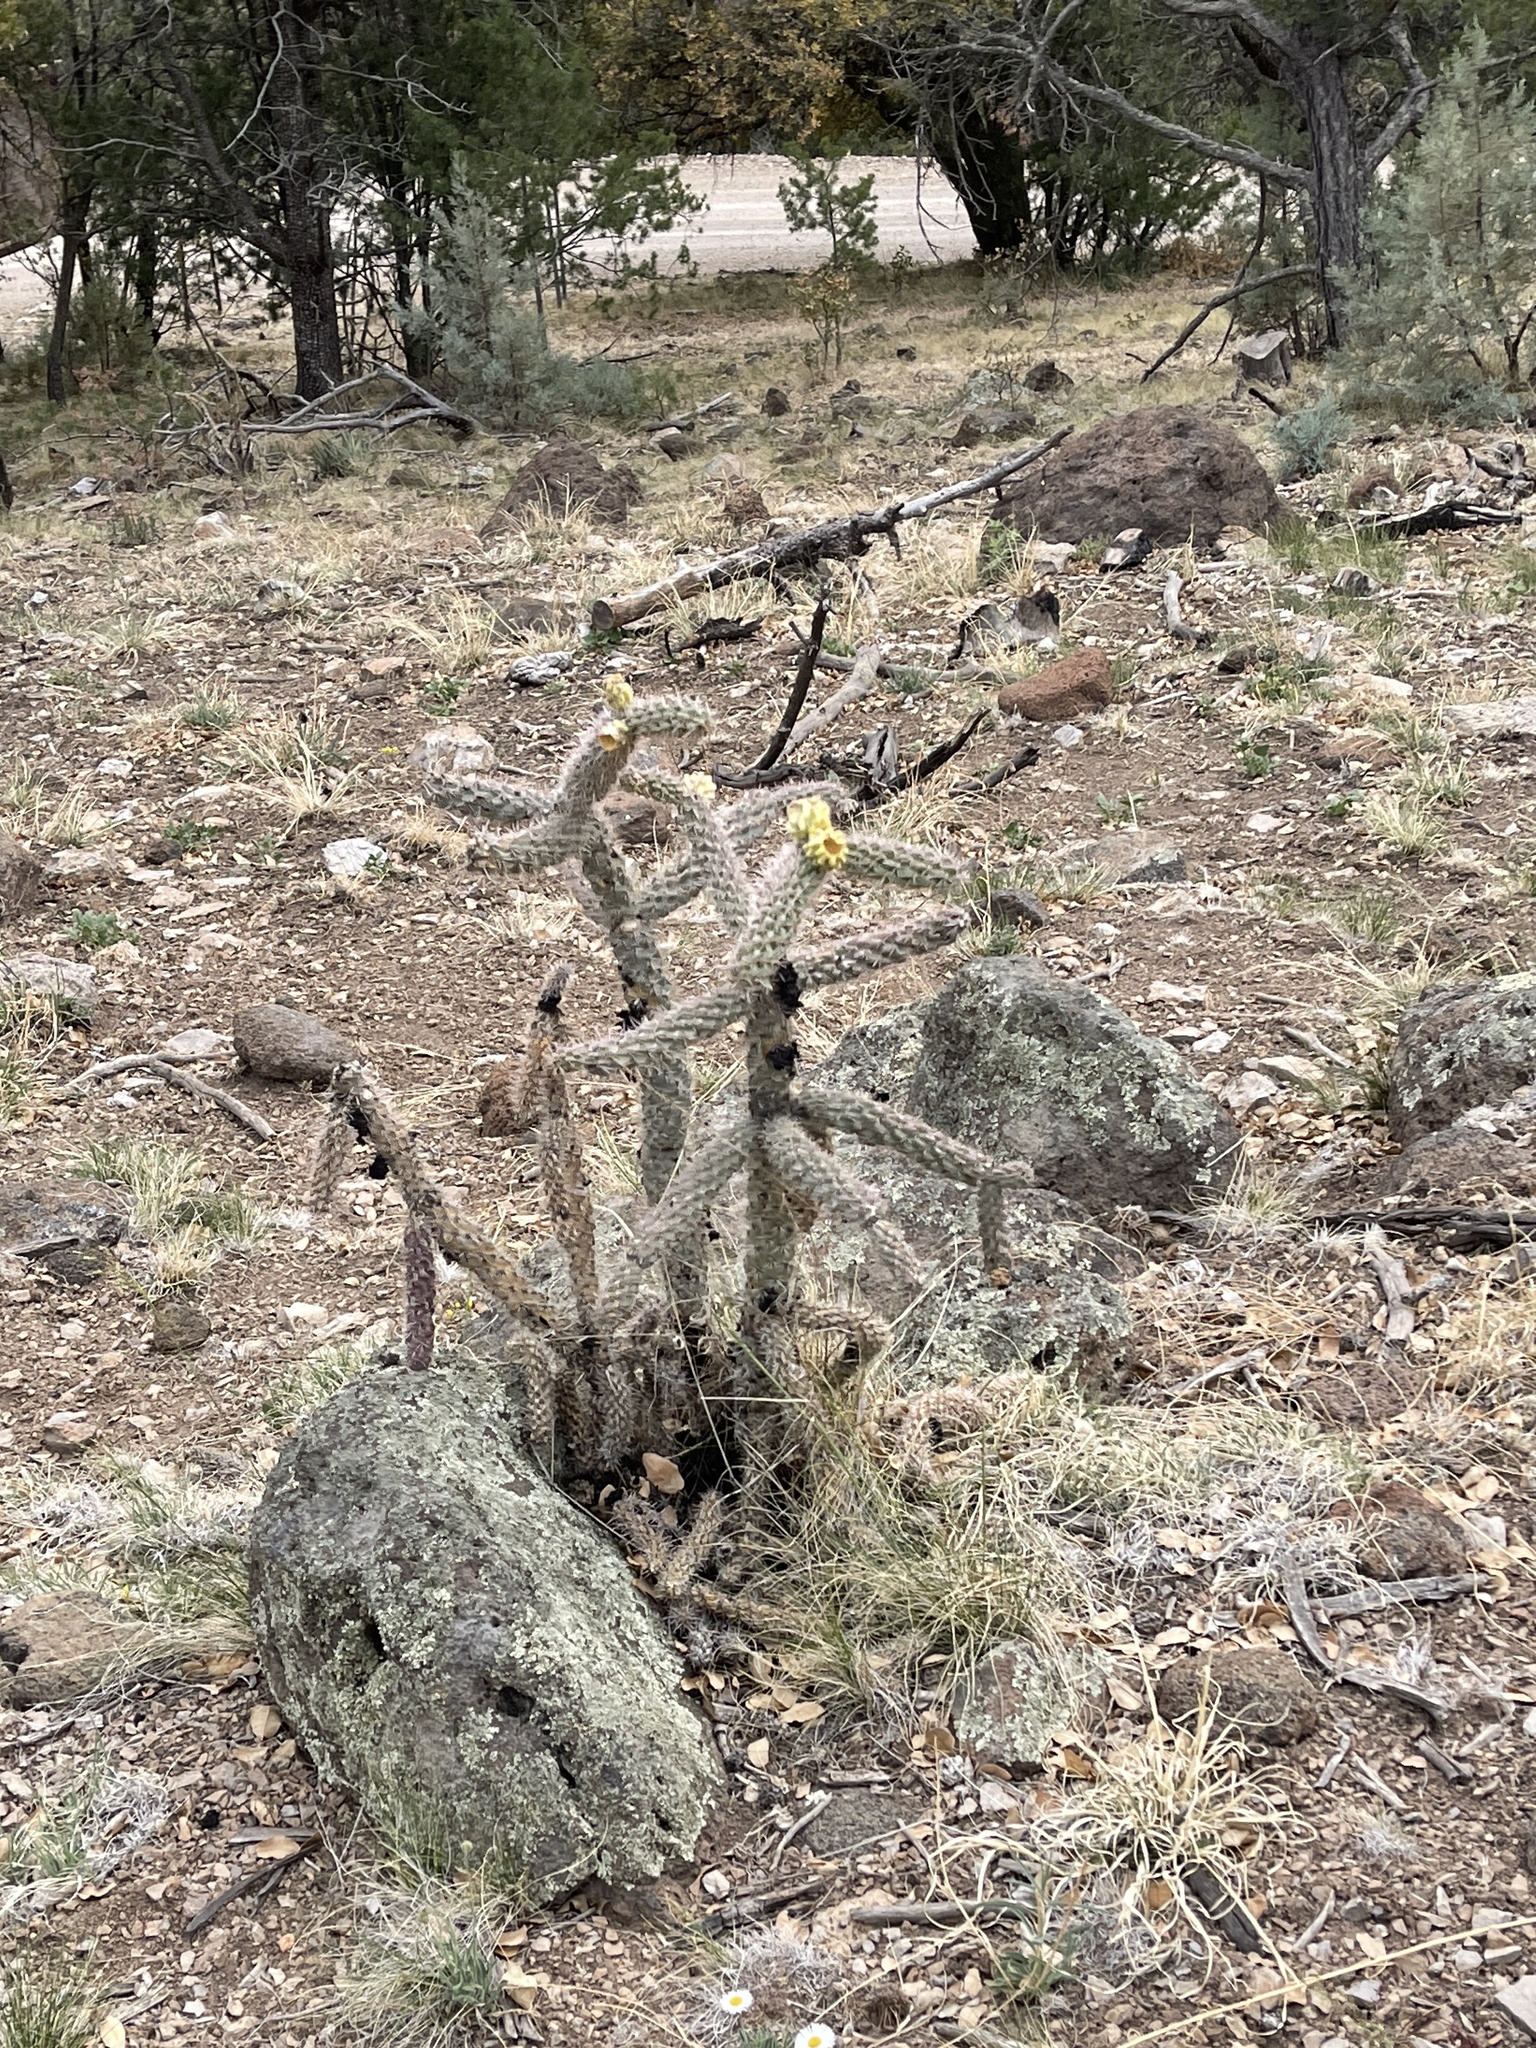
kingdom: Plantae
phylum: Tracheophyta
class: Magnoliopsida
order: Caryophyllales
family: Cactaceae
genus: Cylindropuntia
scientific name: Cylindropuntia imbricata
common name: Candelabrum cactus
